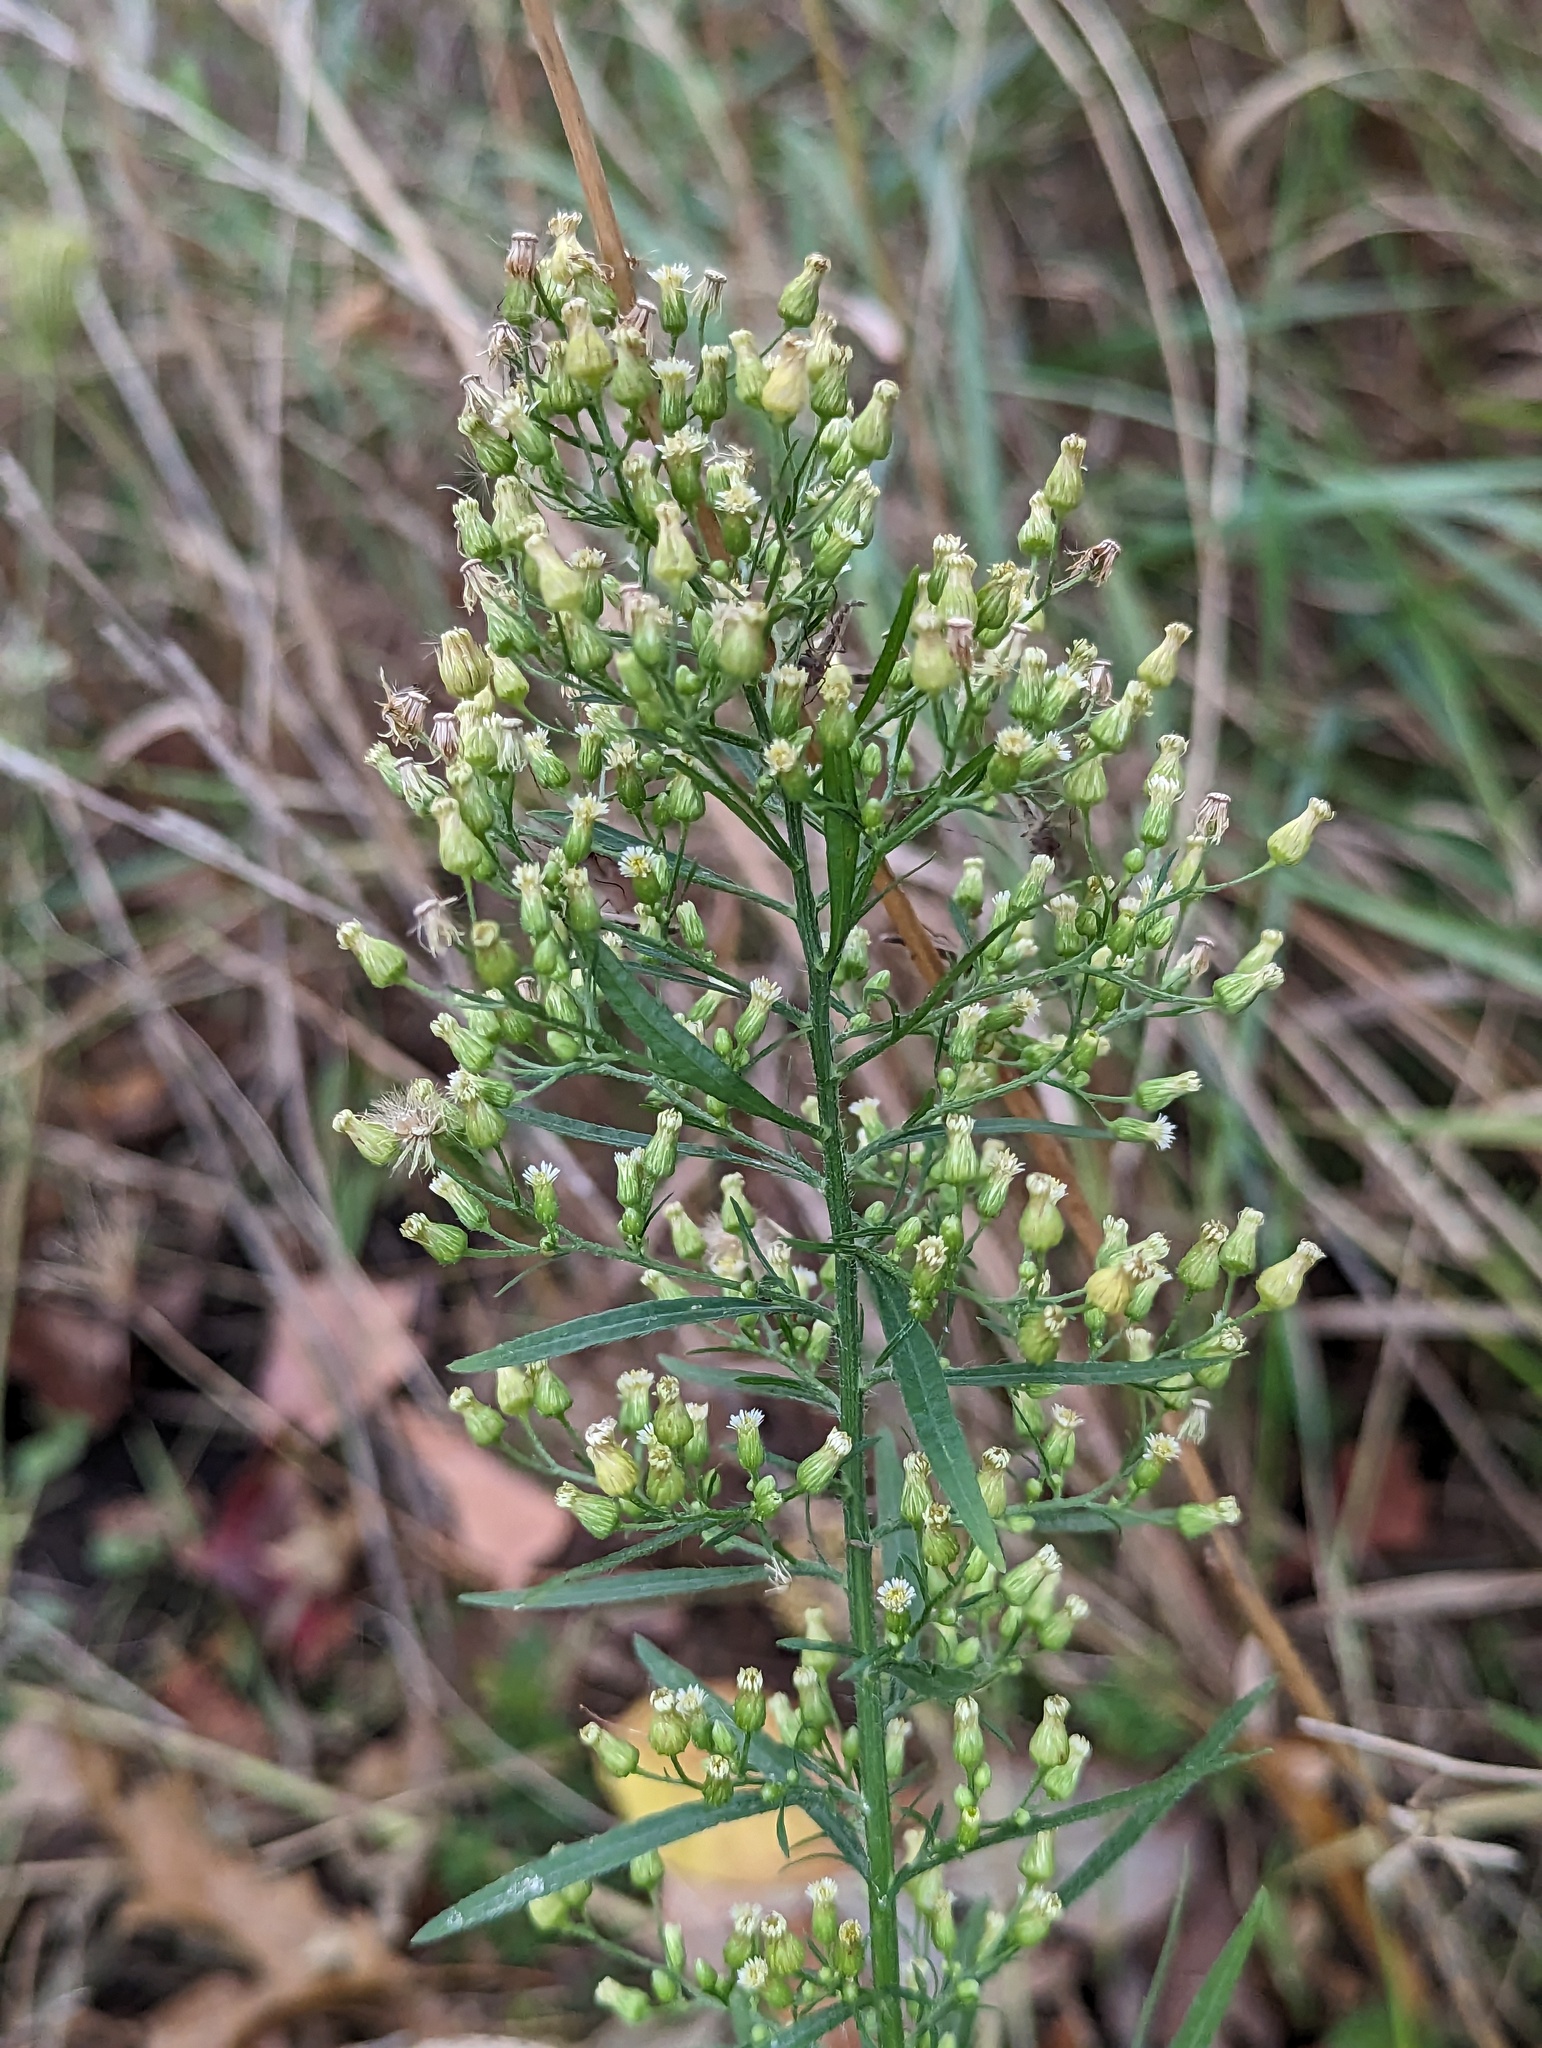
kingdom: Plantae
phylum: Tracheophyta
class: Magnoliopsida
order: Asterales
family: Asteraceae
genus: Erigeron
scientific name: Erigeron canadensis
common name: Canadian fleabane
